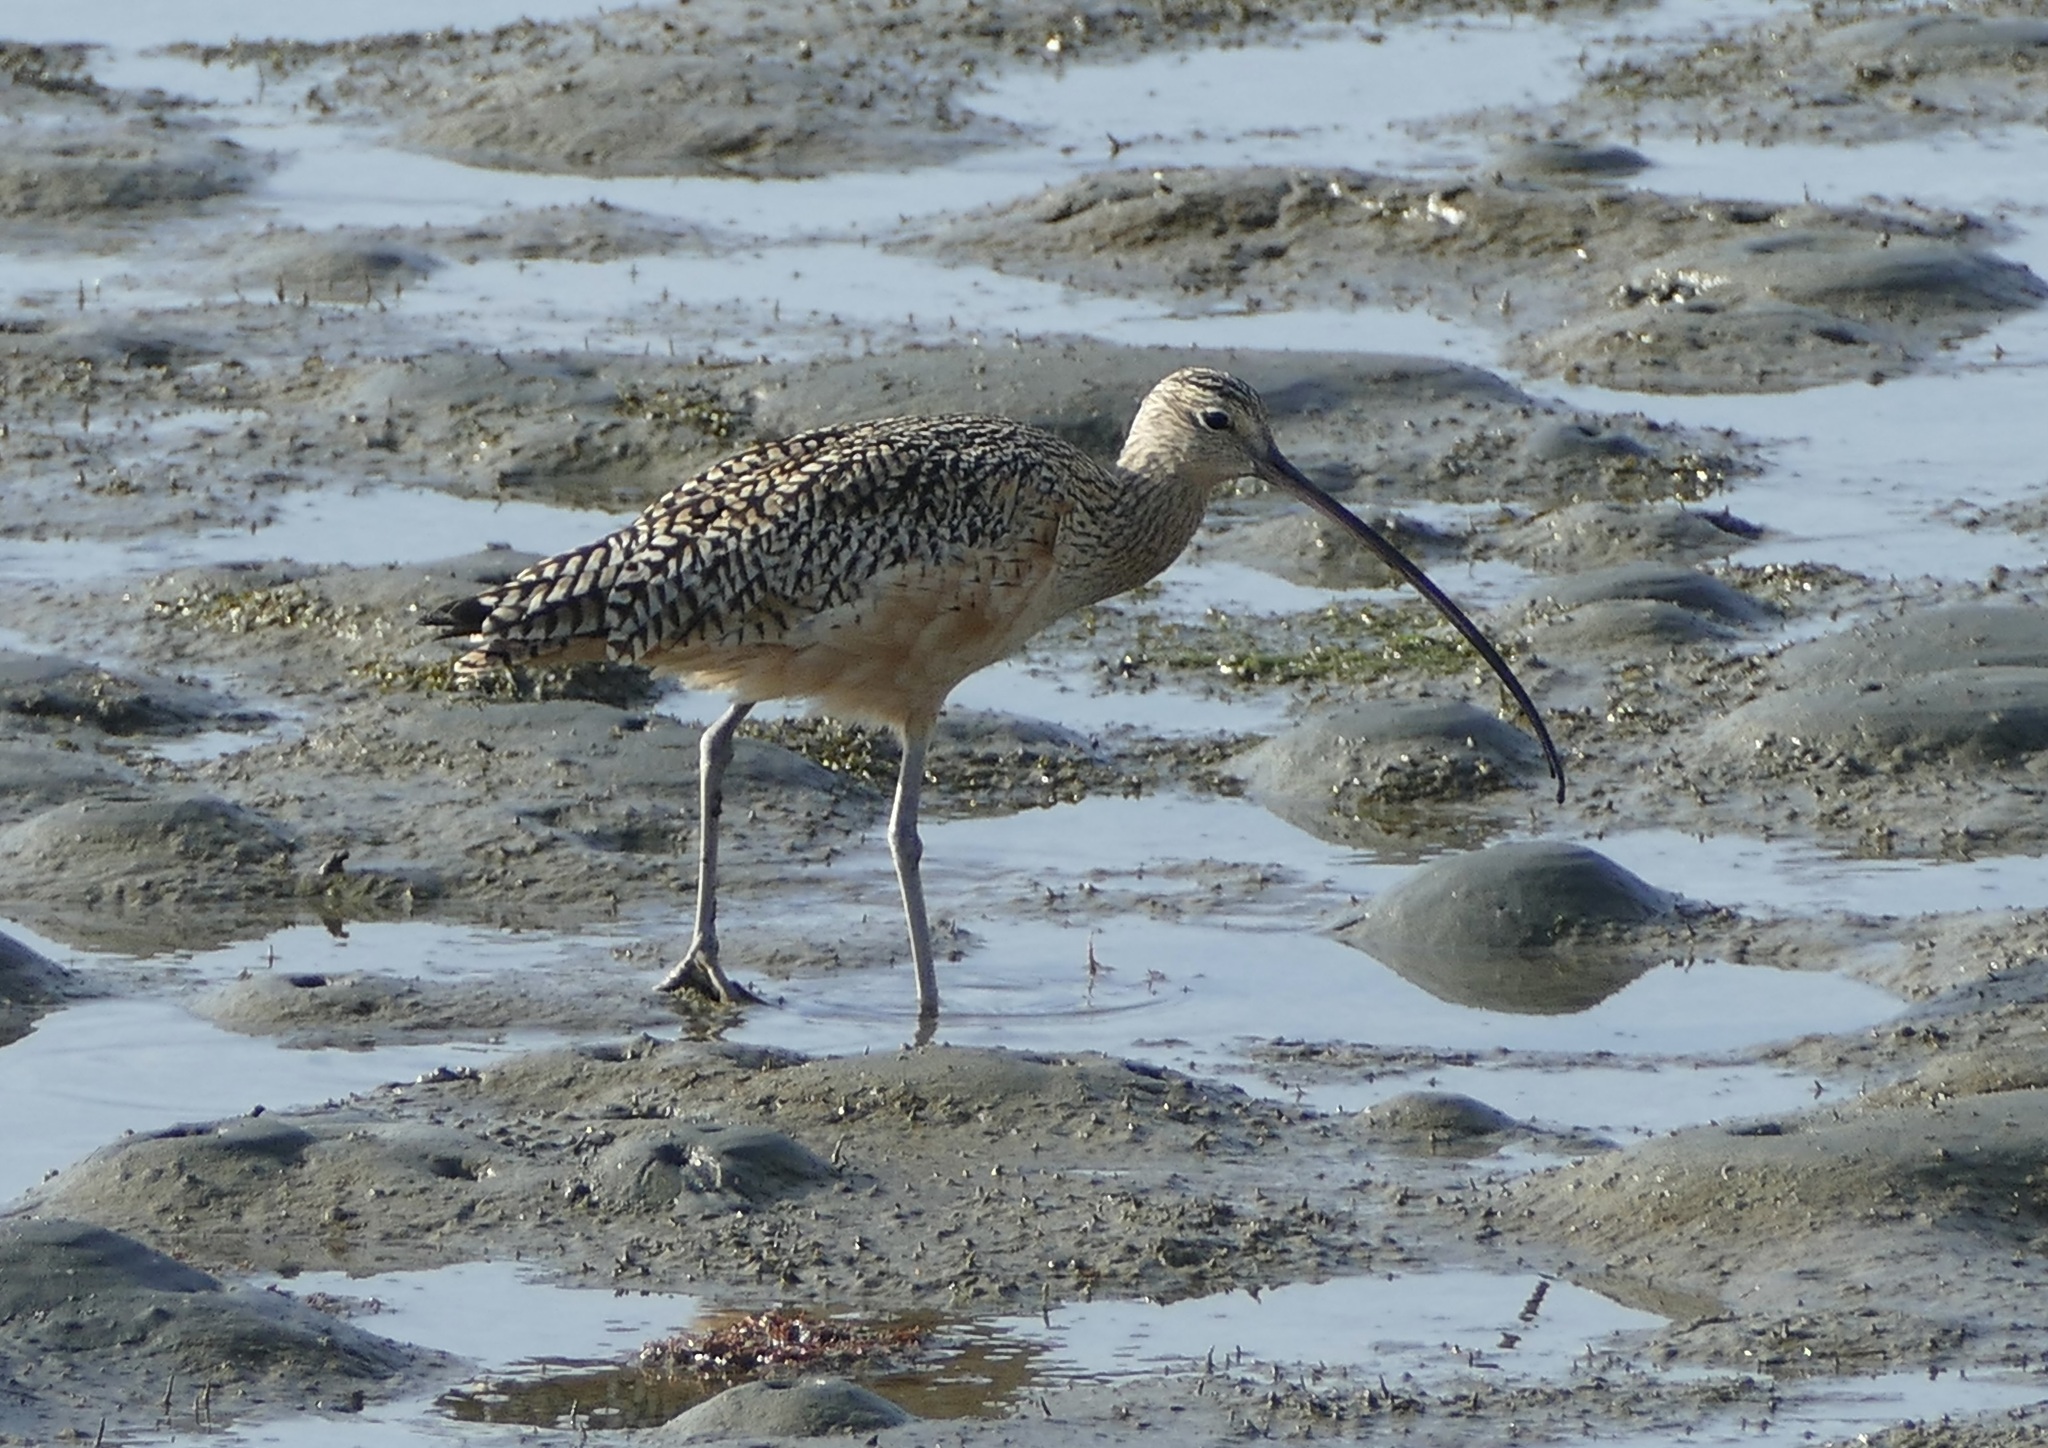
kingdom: Animalia
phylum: Chordata
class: Aves
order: Charadriiformes
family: Scolopacidae
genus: Numenius
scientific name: Numenius americanus
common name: Long-billed curlew
